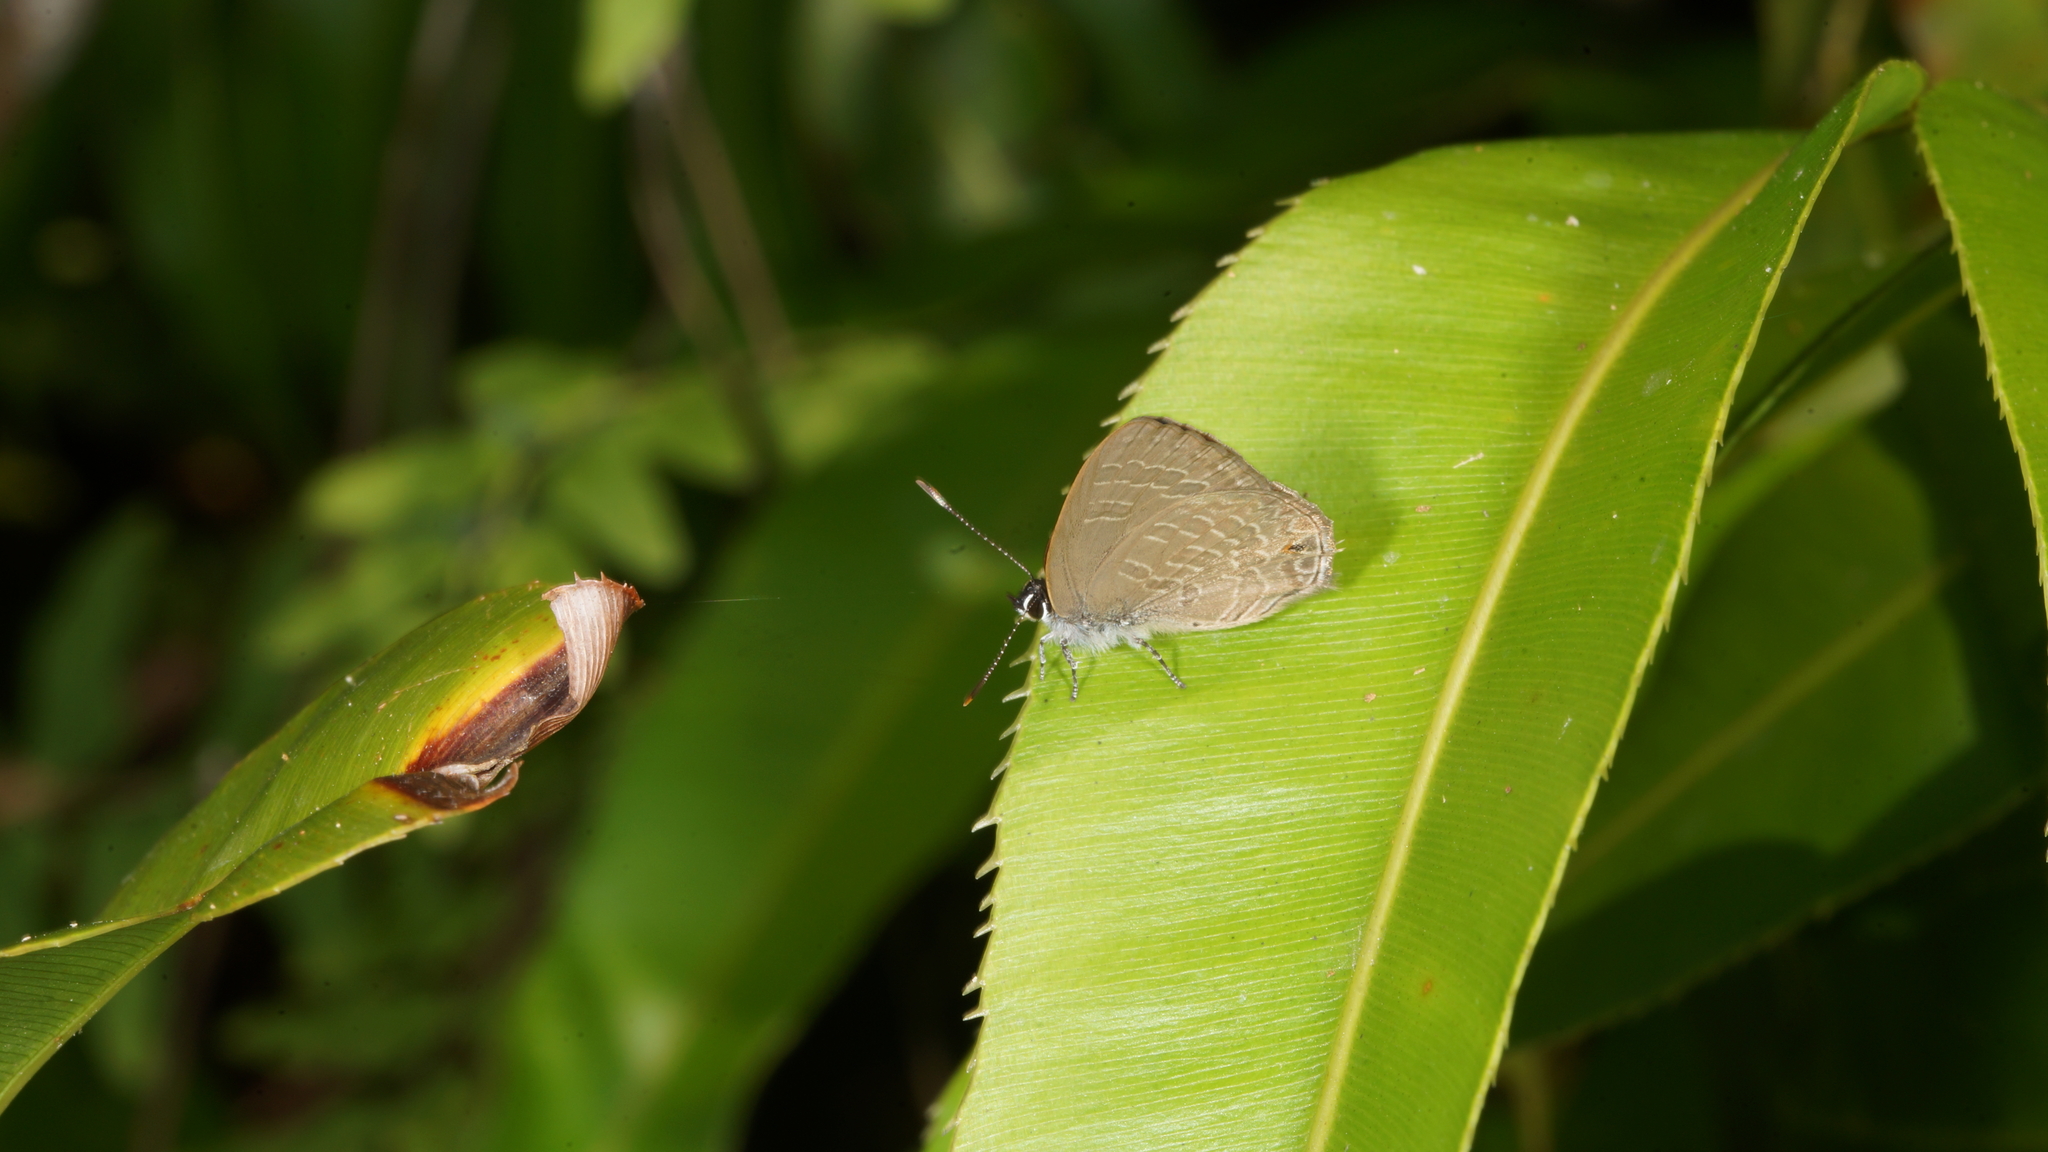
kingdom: Animalia
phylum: Arthropoda
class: Insecta
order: Lepidoptera
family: Lycaenidae
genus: Anthene
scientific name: Anthene emolus
